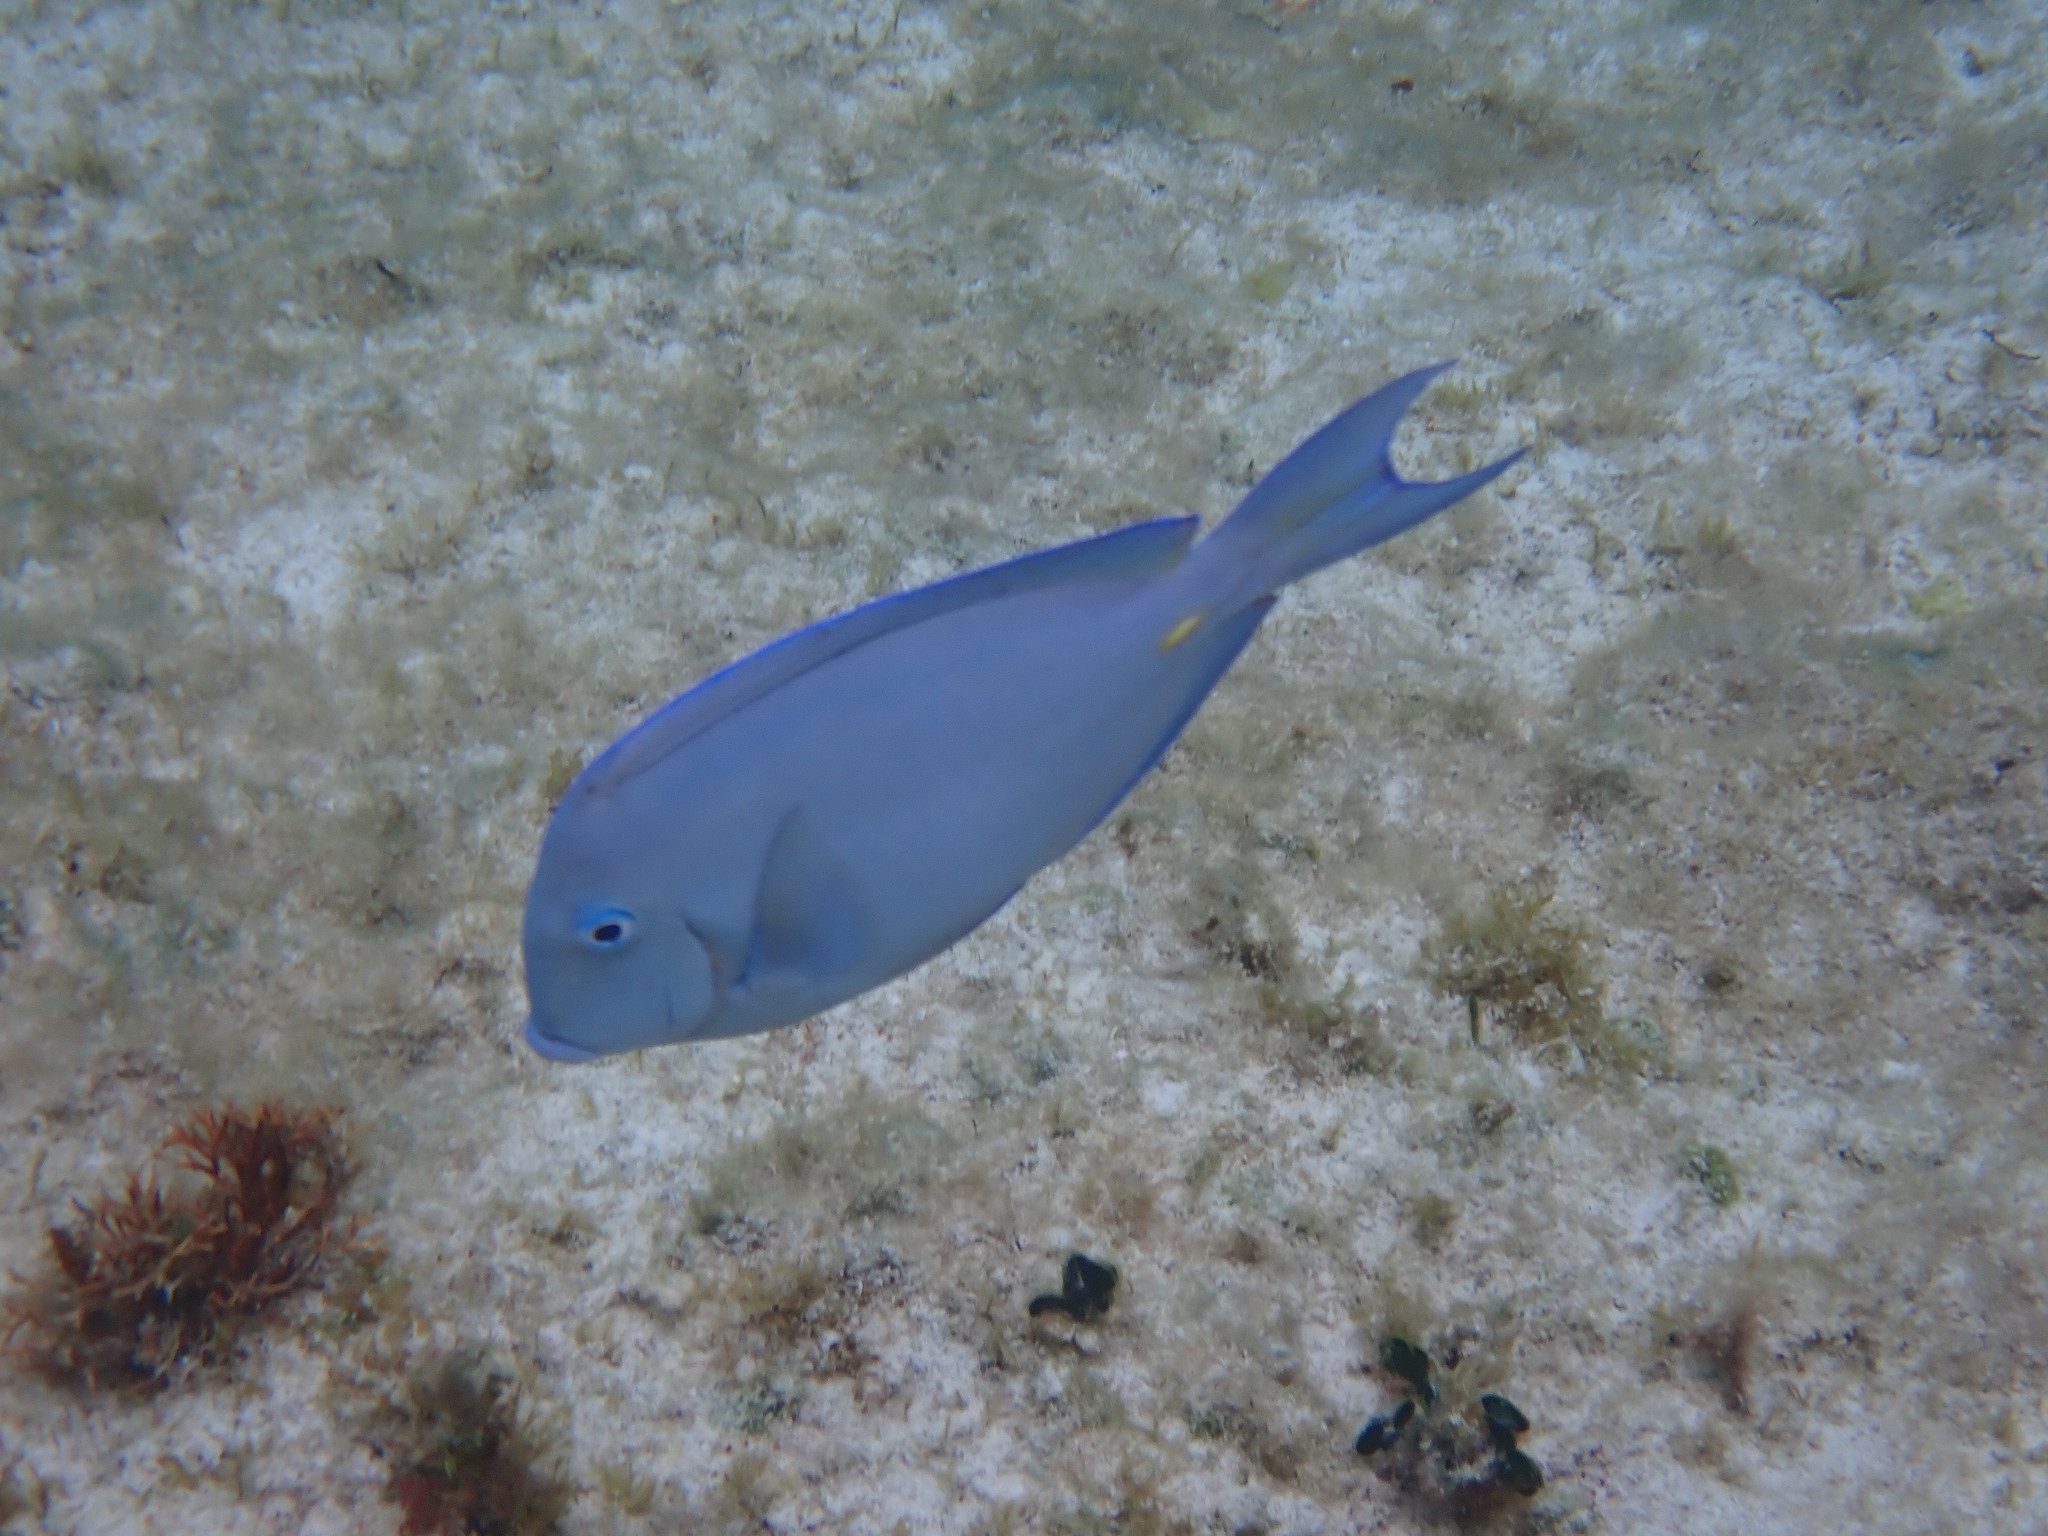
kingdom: Animalia
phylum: Chordata
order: Perciformes
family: Acanthuridae
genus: Acanthurus
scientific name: Acanthurus coeruleus
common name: Blue tang
